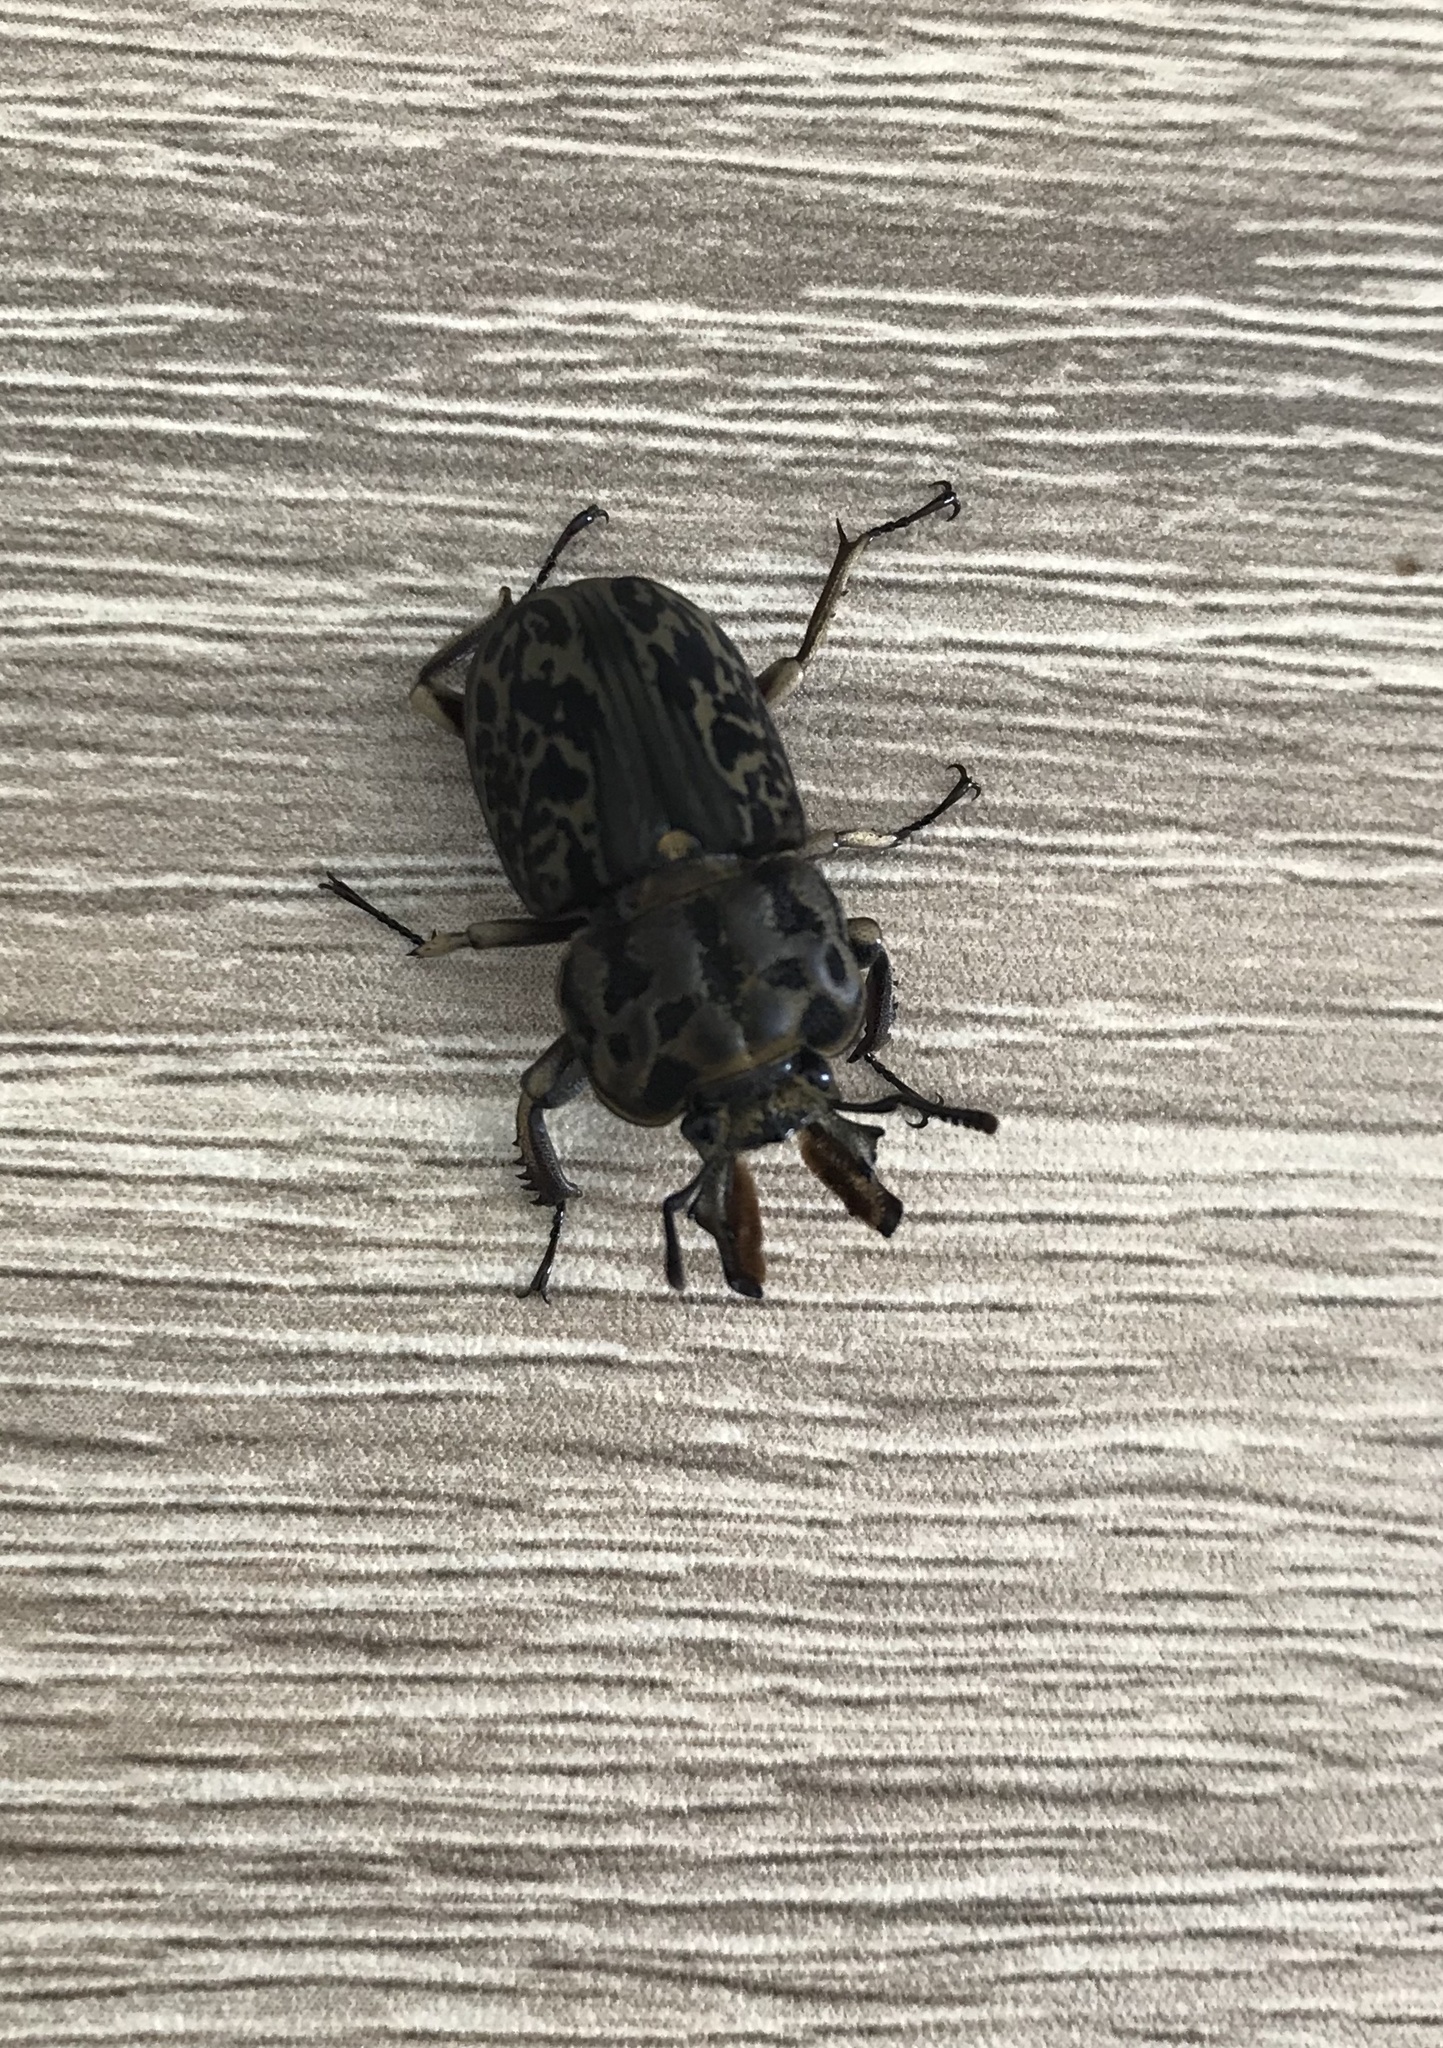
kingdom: Animalia
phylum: Arthropoda
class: Insecta
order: Coleoptera
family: Lucanidae
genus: Ryssonotus
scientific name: Ryssonotus nebulosus
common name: Brown stag beetle
